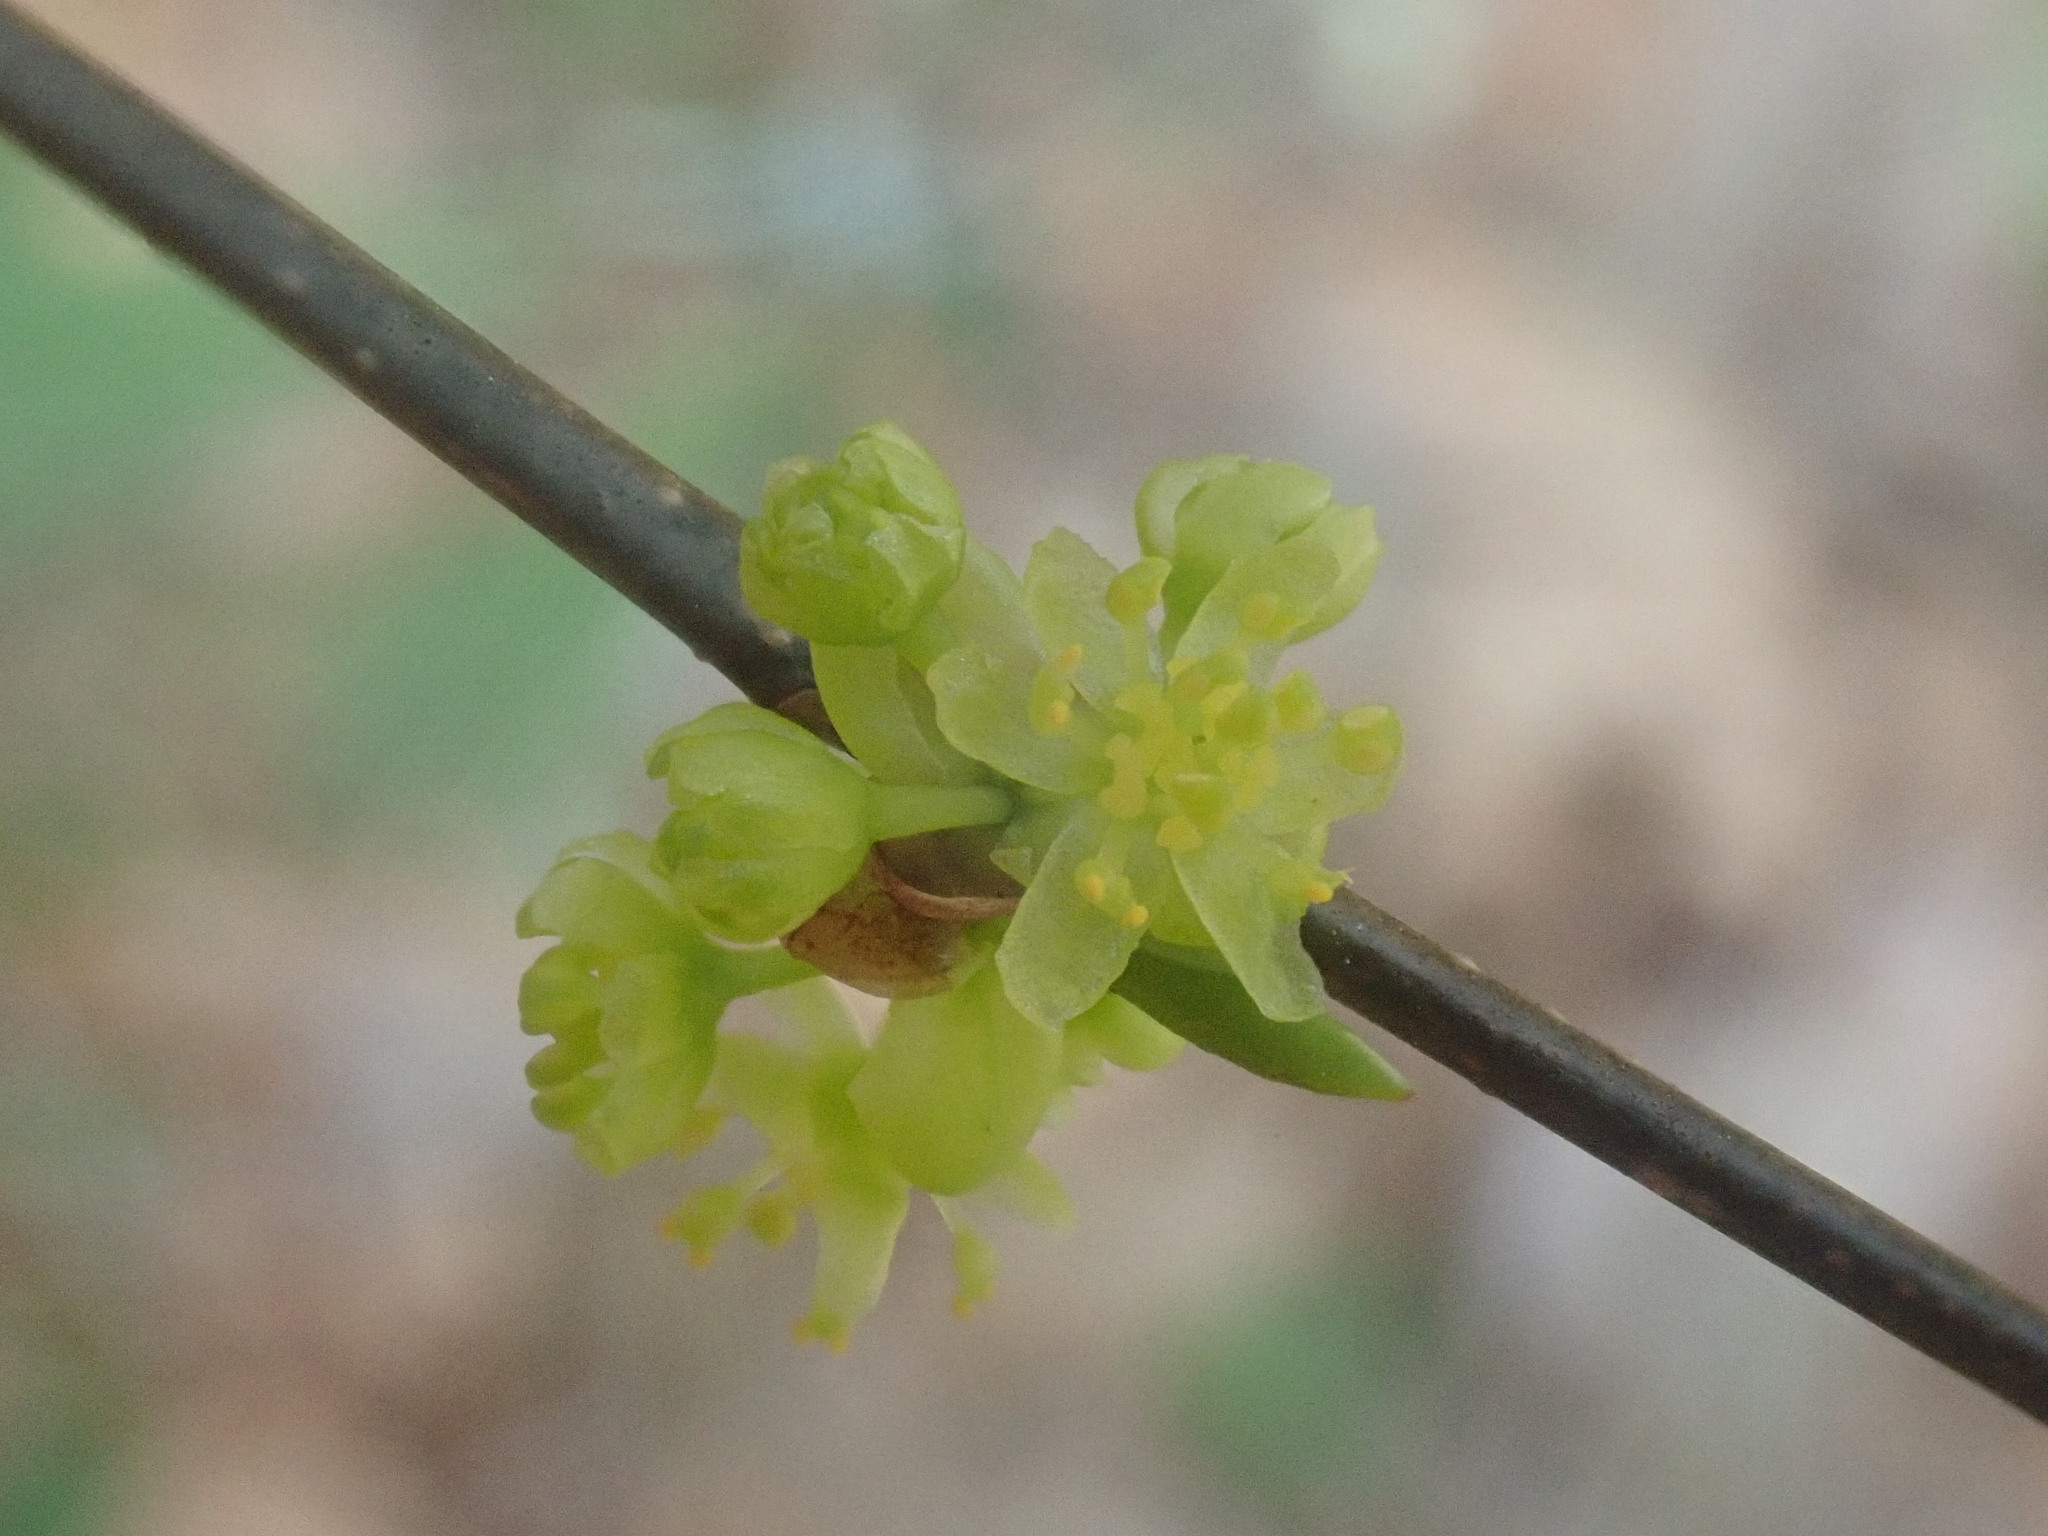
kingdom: Plantae
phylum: Tracheophyta
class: Magnoliopsida
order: Laurales
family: Lauraceae
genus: Lindera
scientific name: Lindera benzoin
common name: Spicebush
